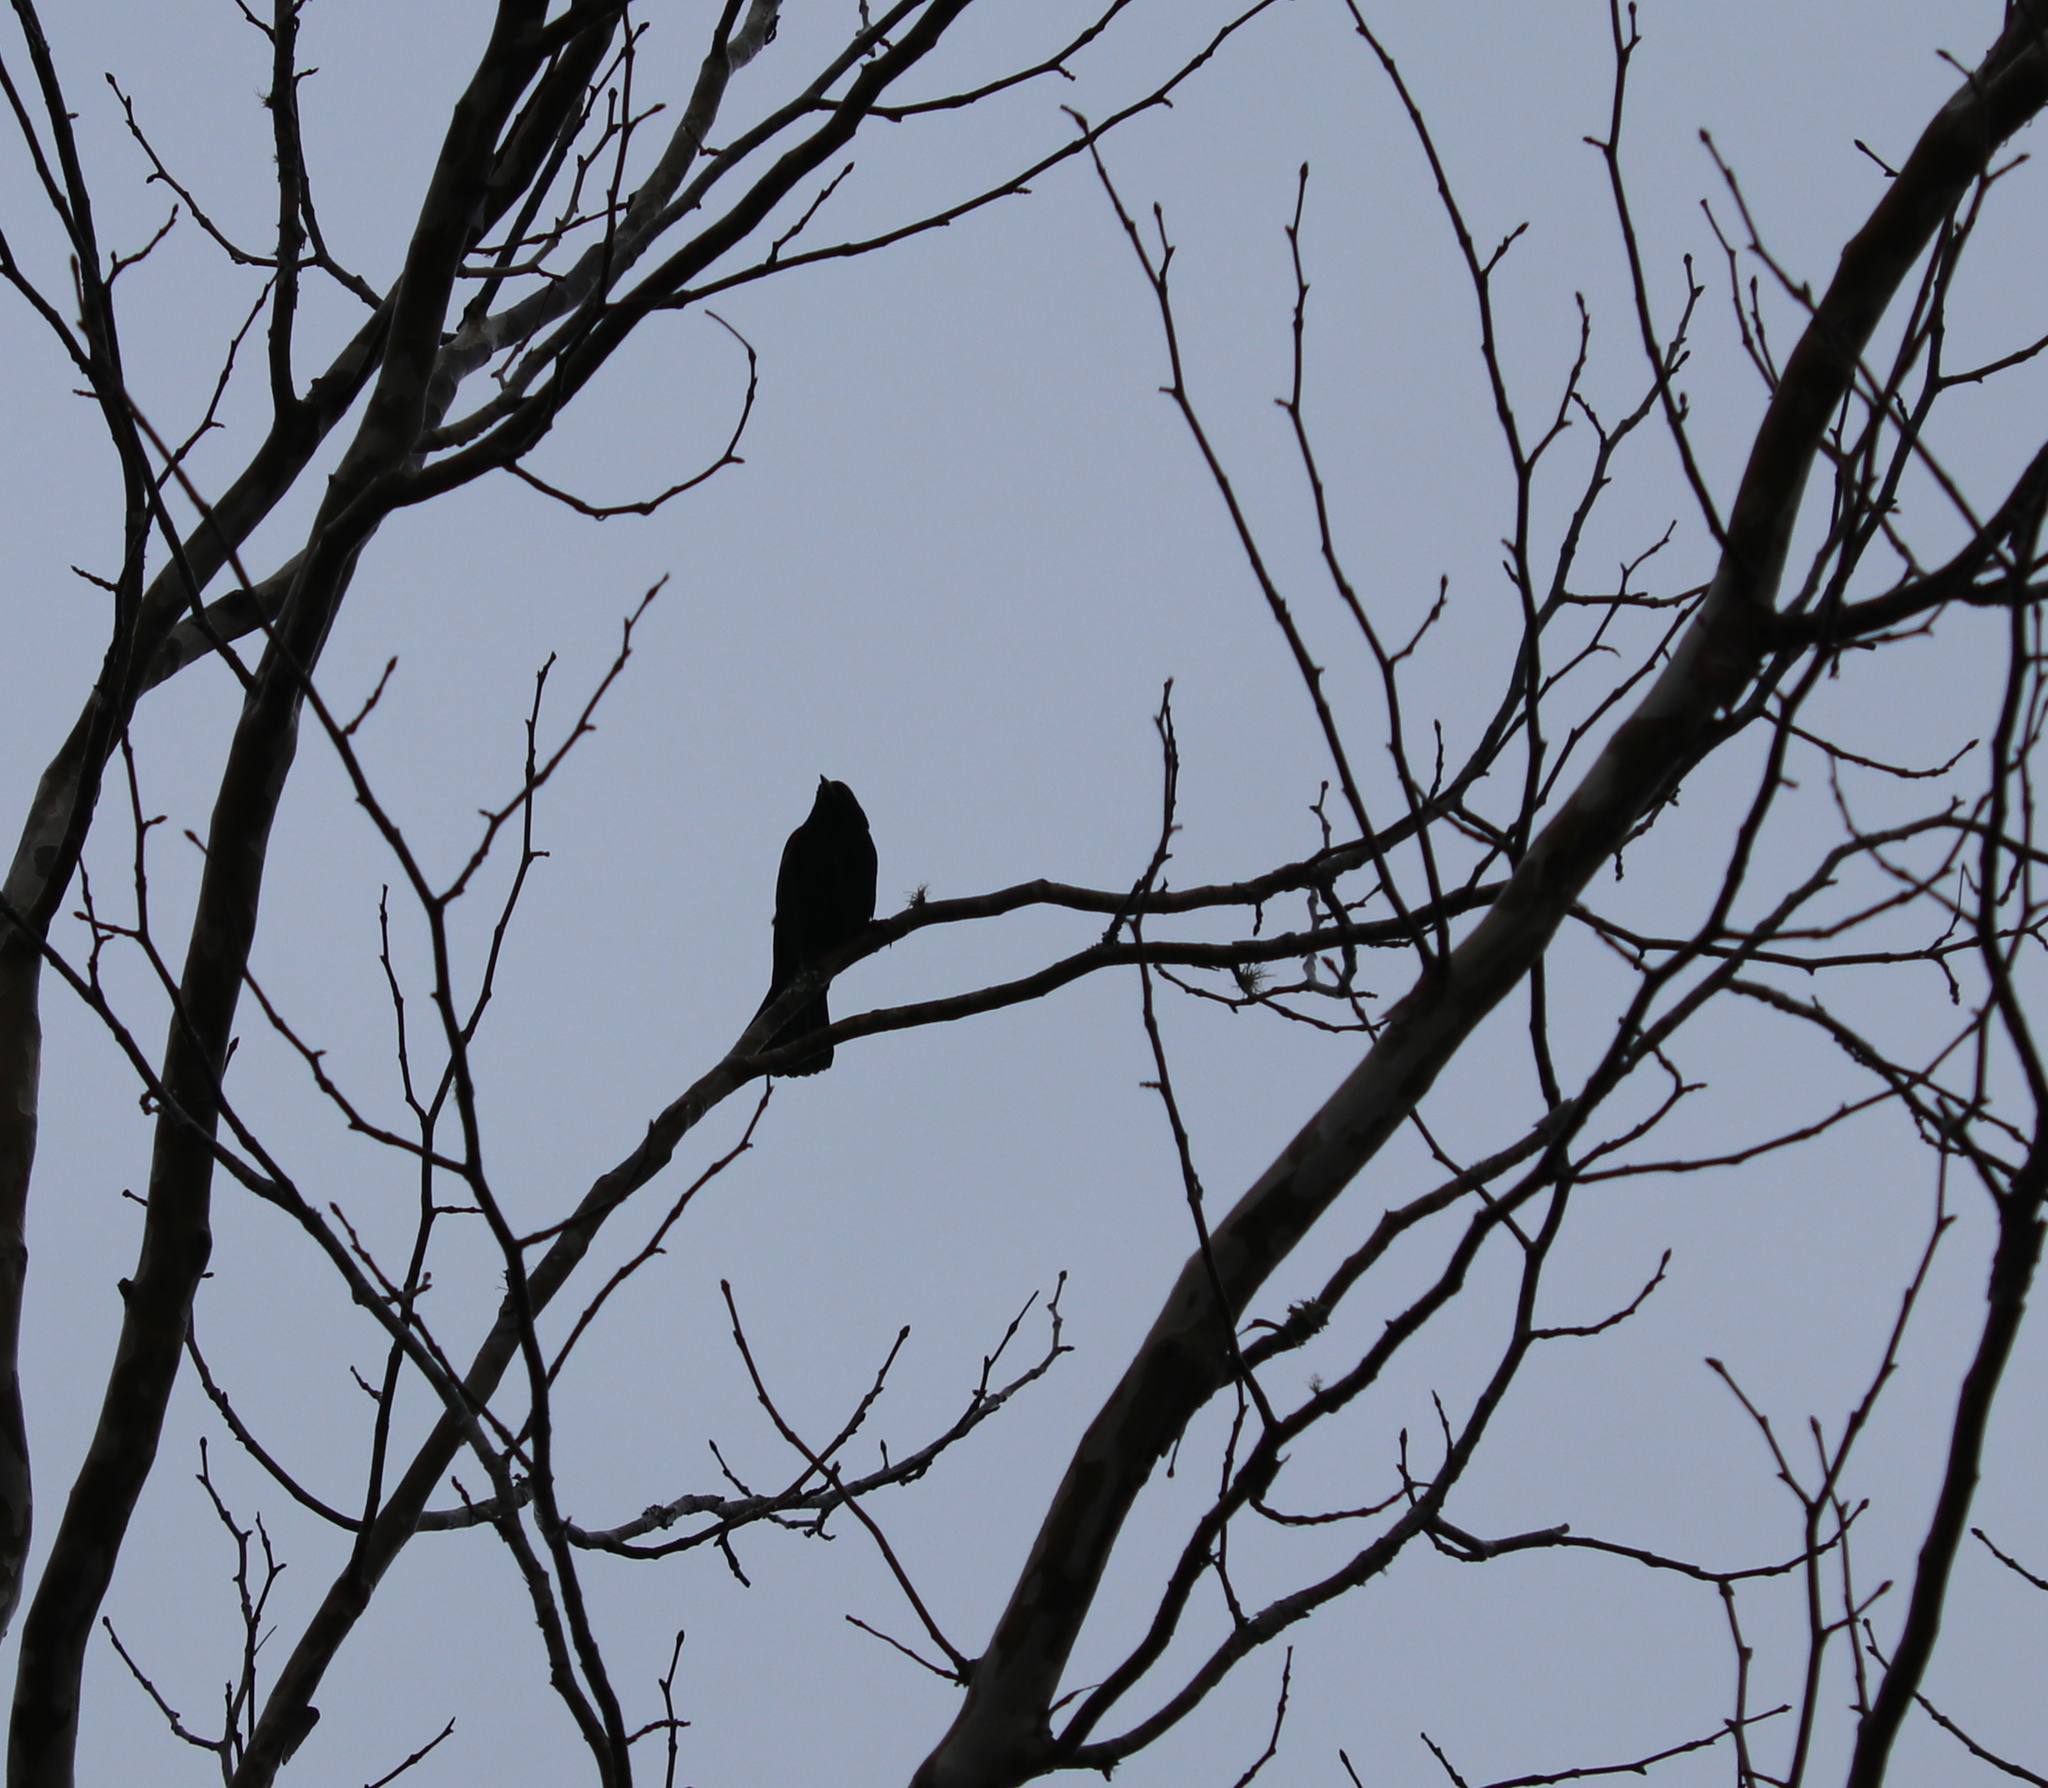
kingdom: Animalia
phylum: Chordata
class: Aves
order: Passeriformes
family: Icteridae
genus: Agelaius
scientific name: Agelaius phoeniceus
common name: Red-winged blackbird
